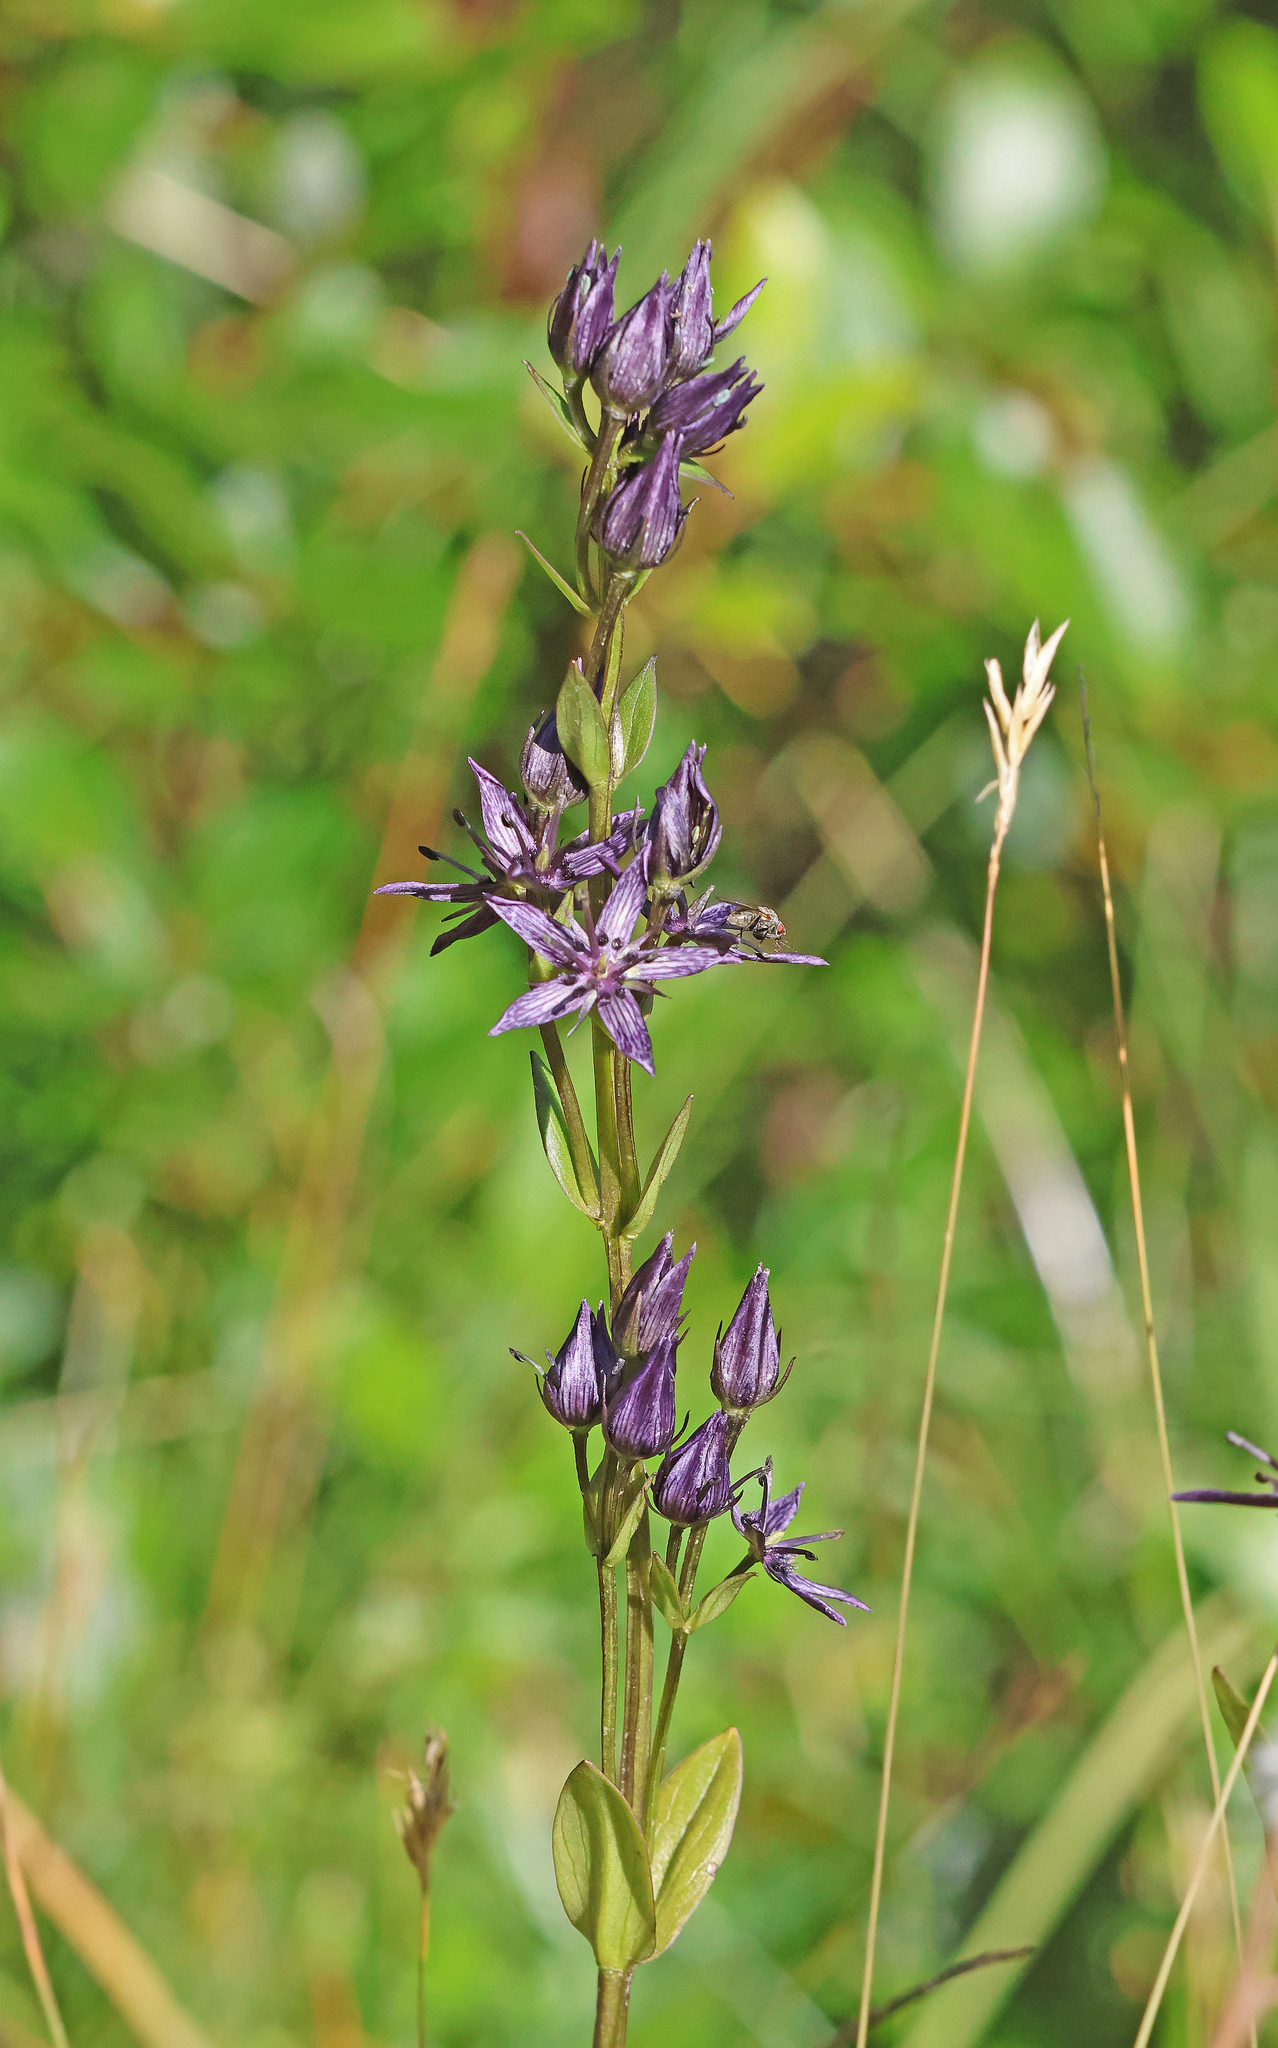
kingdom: Plantae
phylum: Tracheophyta
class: Magnoliopsida
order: Gentianales
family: Gentianaceae
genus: Swertia
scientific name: Swertia perennis
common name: Alpine bog swertia
